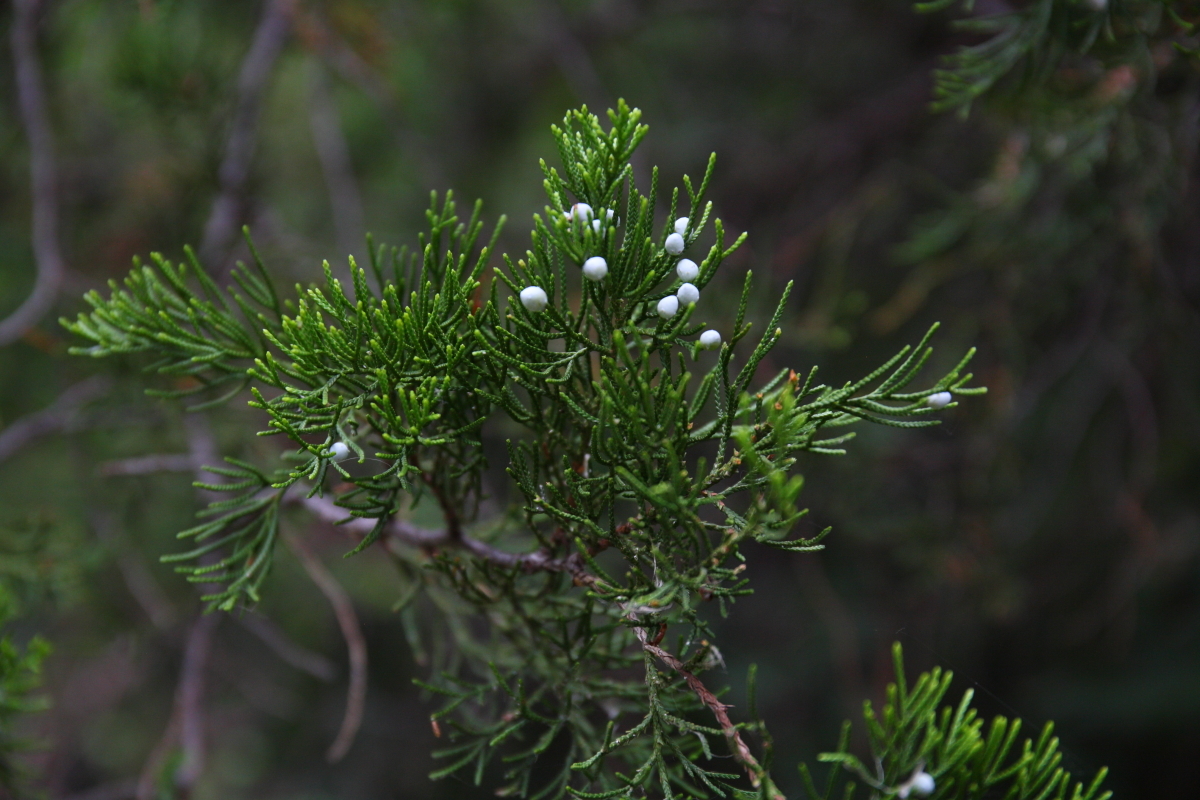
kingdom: Plantae
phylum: Tracheophyta
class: Pinopsida
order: Pinales
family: Cupressaceae
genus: Juniperus
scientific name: Juniperus virginiana
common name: Red juniper
